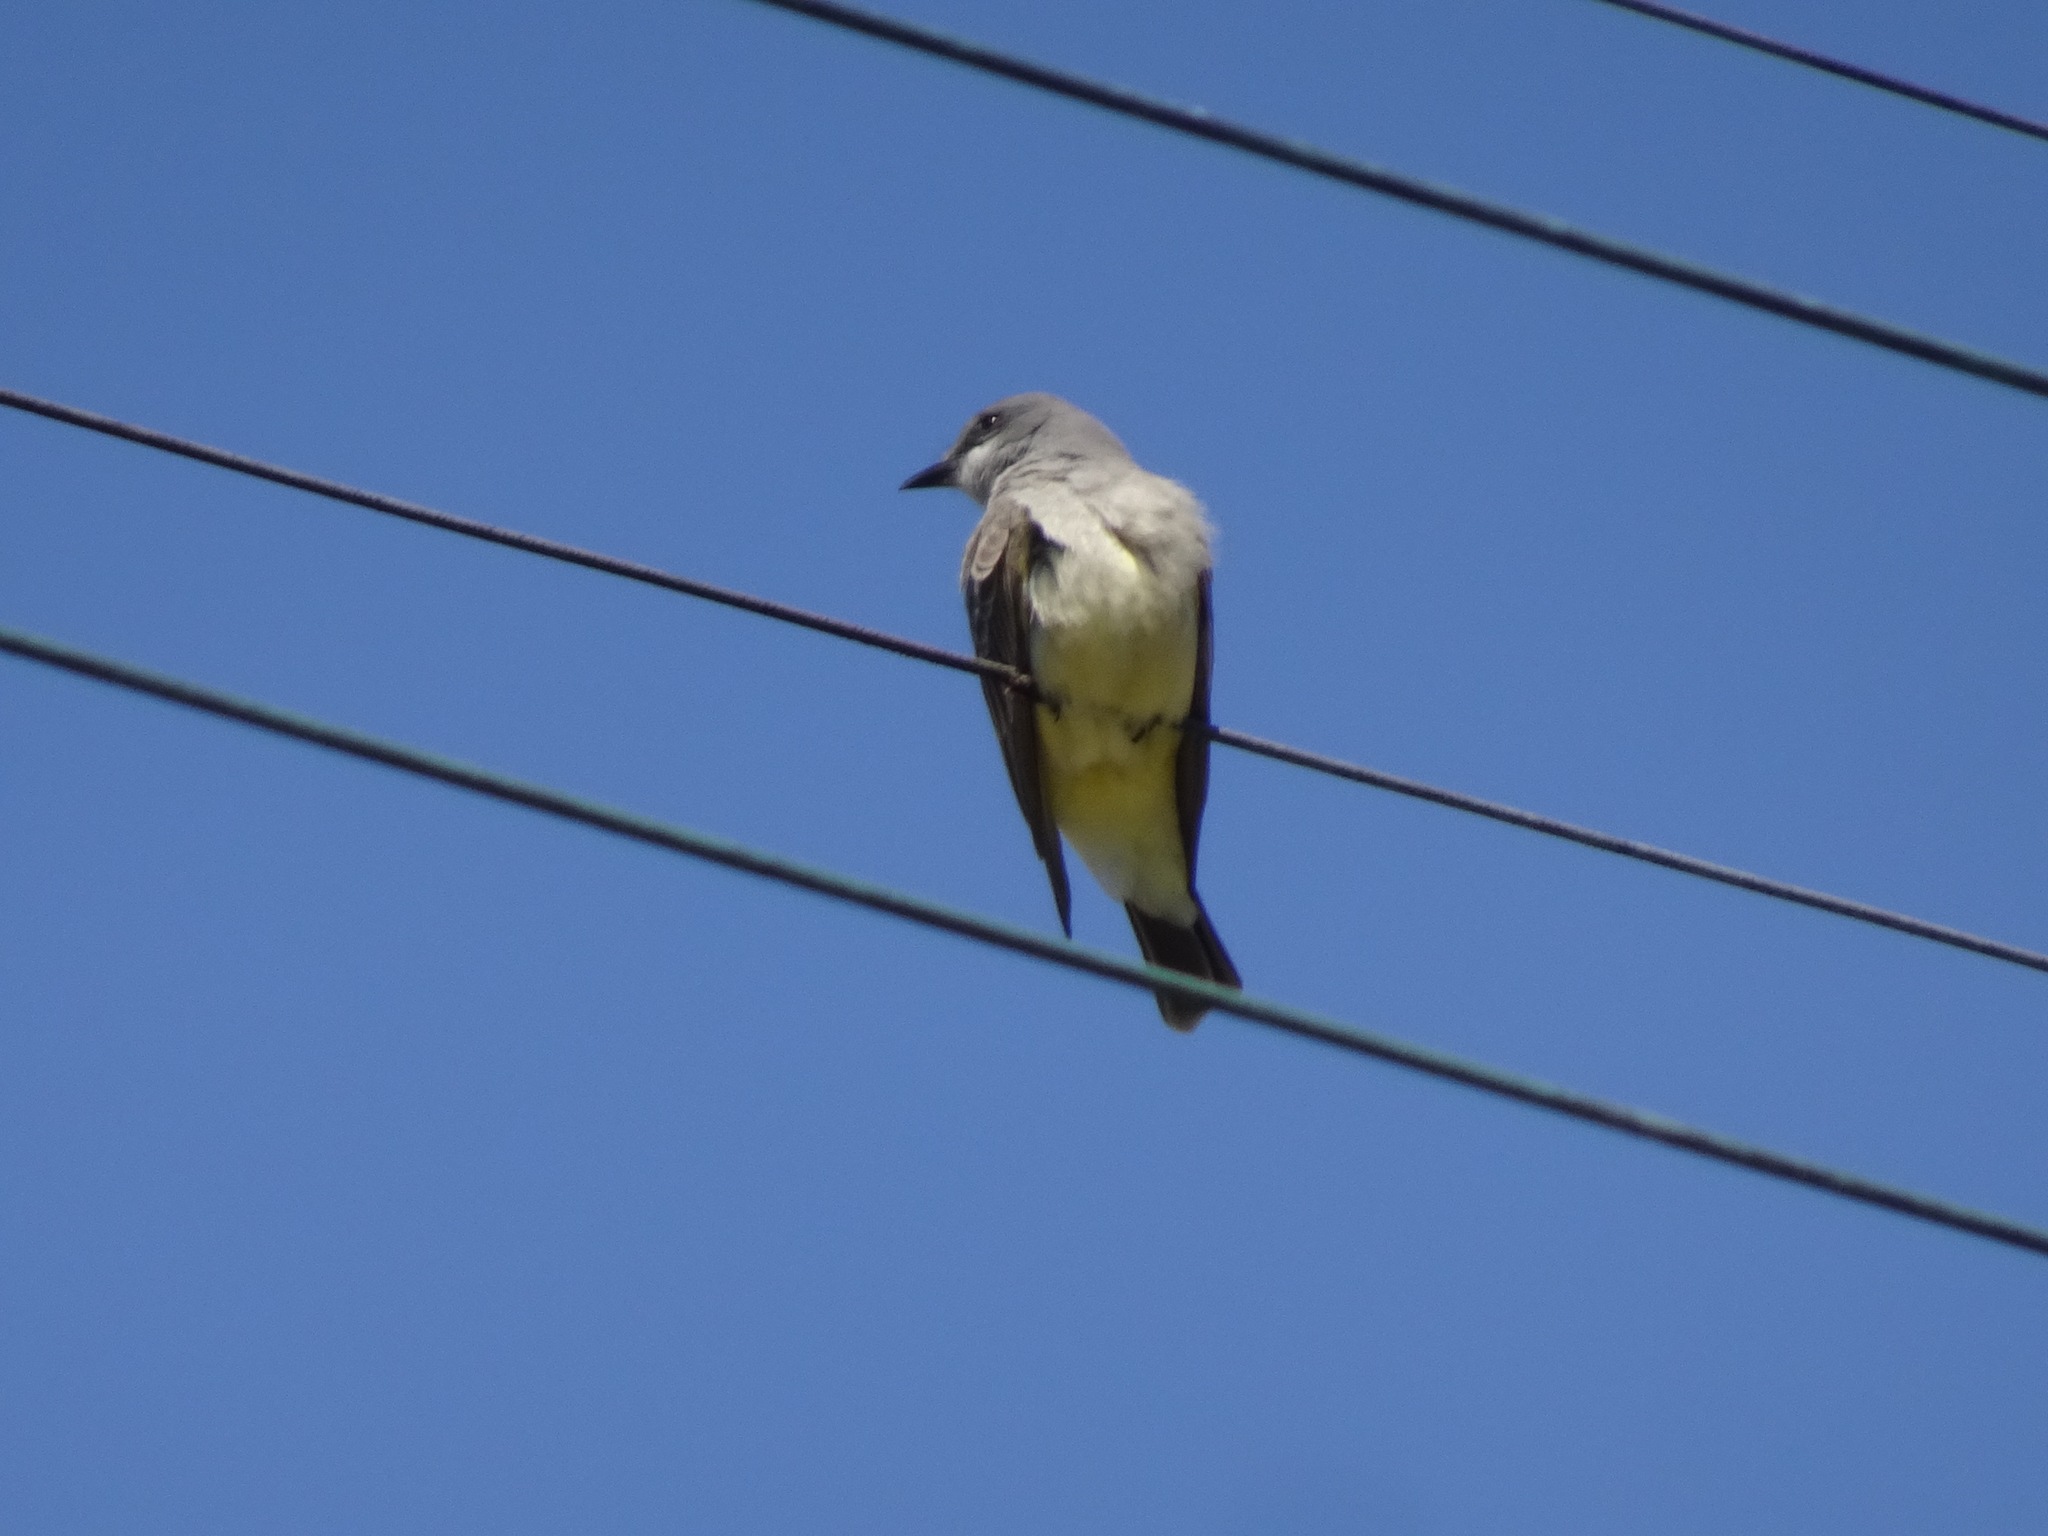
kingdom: Animalia
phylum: Chordata
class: Aves
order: Passeriformes
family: Tyrannidae
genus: Tyrannus
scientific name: Tyrannus vociferans
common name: Cassin's kingbird
